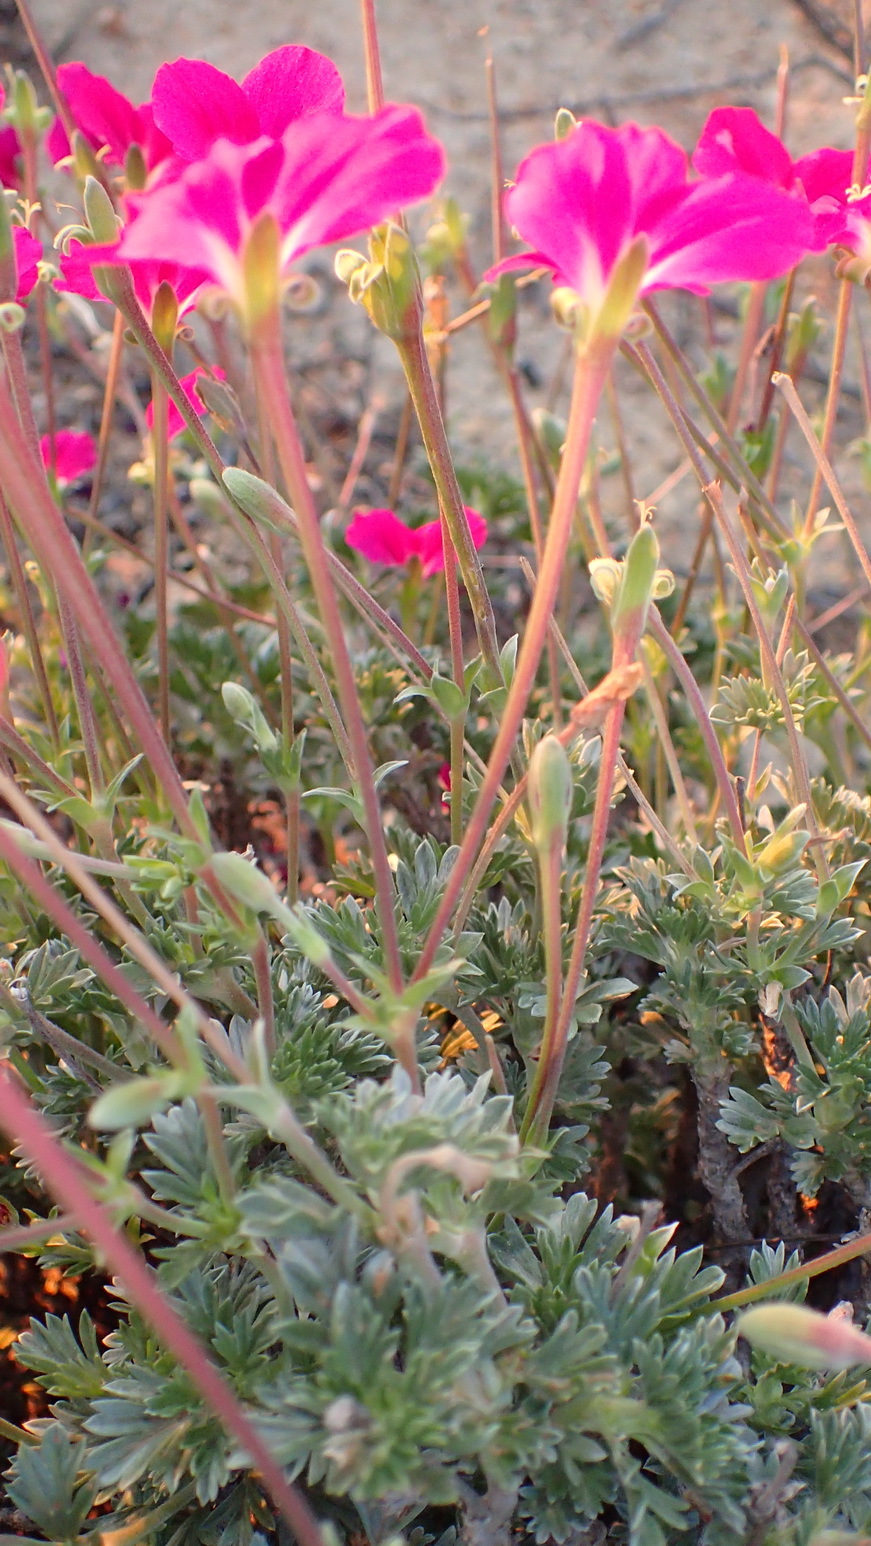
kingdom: Plantae
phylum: Tracheophyta
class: Magnoliopsida
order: Geraniales
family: Geraniaceae
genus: Pelargonium
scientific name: Pelargonium sericifolium
